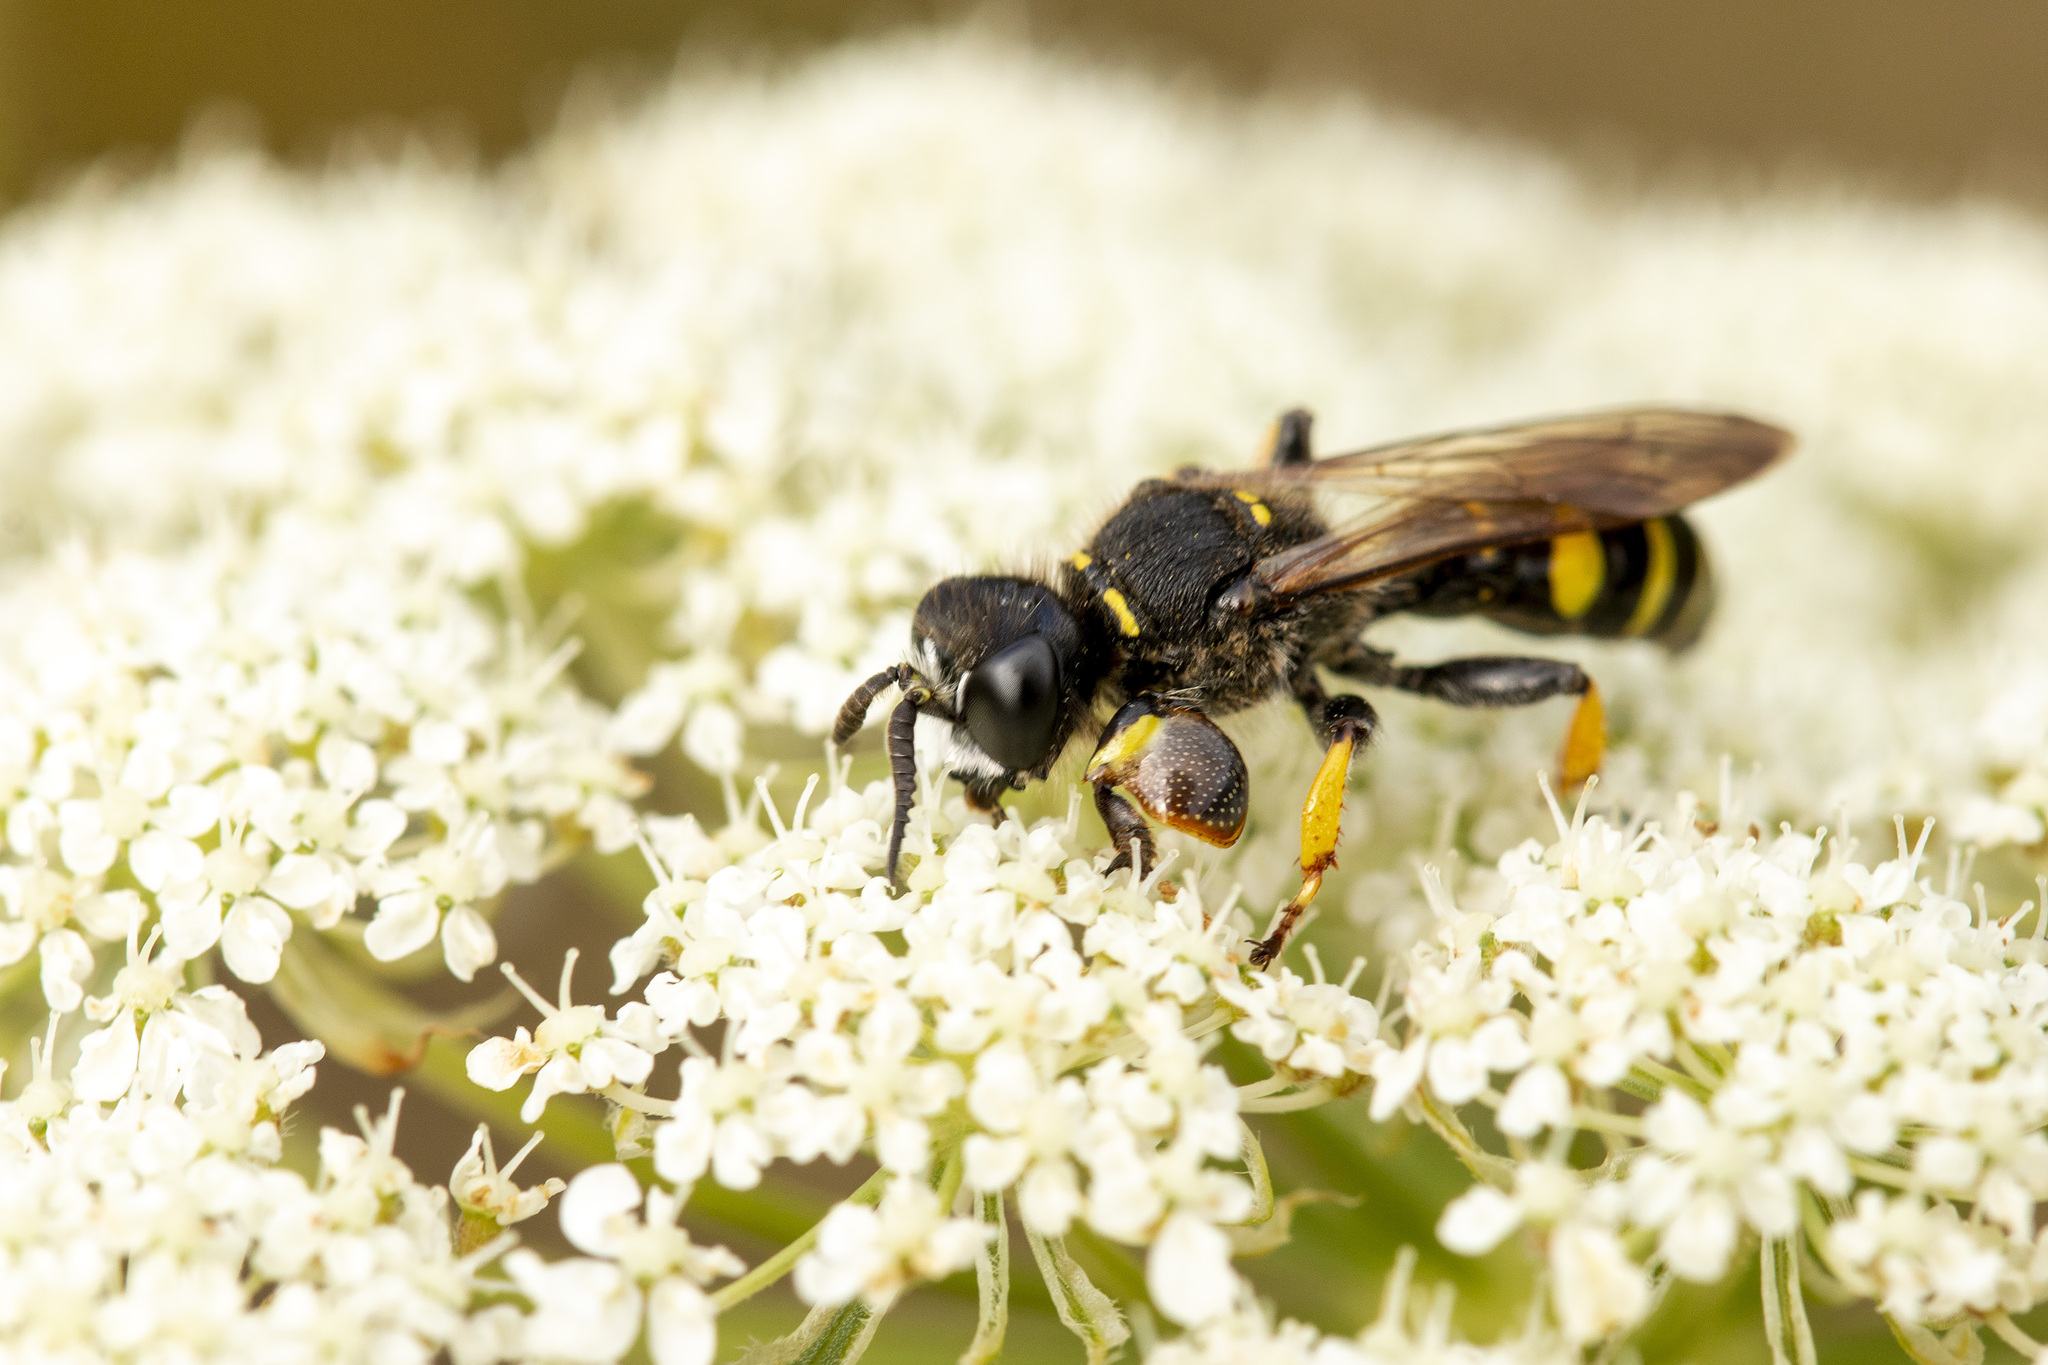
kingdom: Animalia
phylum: Arthropoda
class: Insecta
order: Hymenoptera
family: Crabronidae
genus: Crabro
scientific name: Crabro cribrarius
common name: Slender bodied digger wasp
